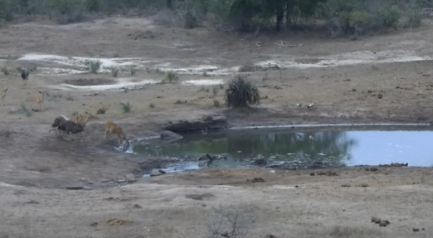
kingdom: Animalia
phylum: Chordata
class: Mammalia
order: Artiodactyla
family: Bovidae
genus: Tragelaphus
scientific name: Tragelaphus angasii
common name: Nyala
